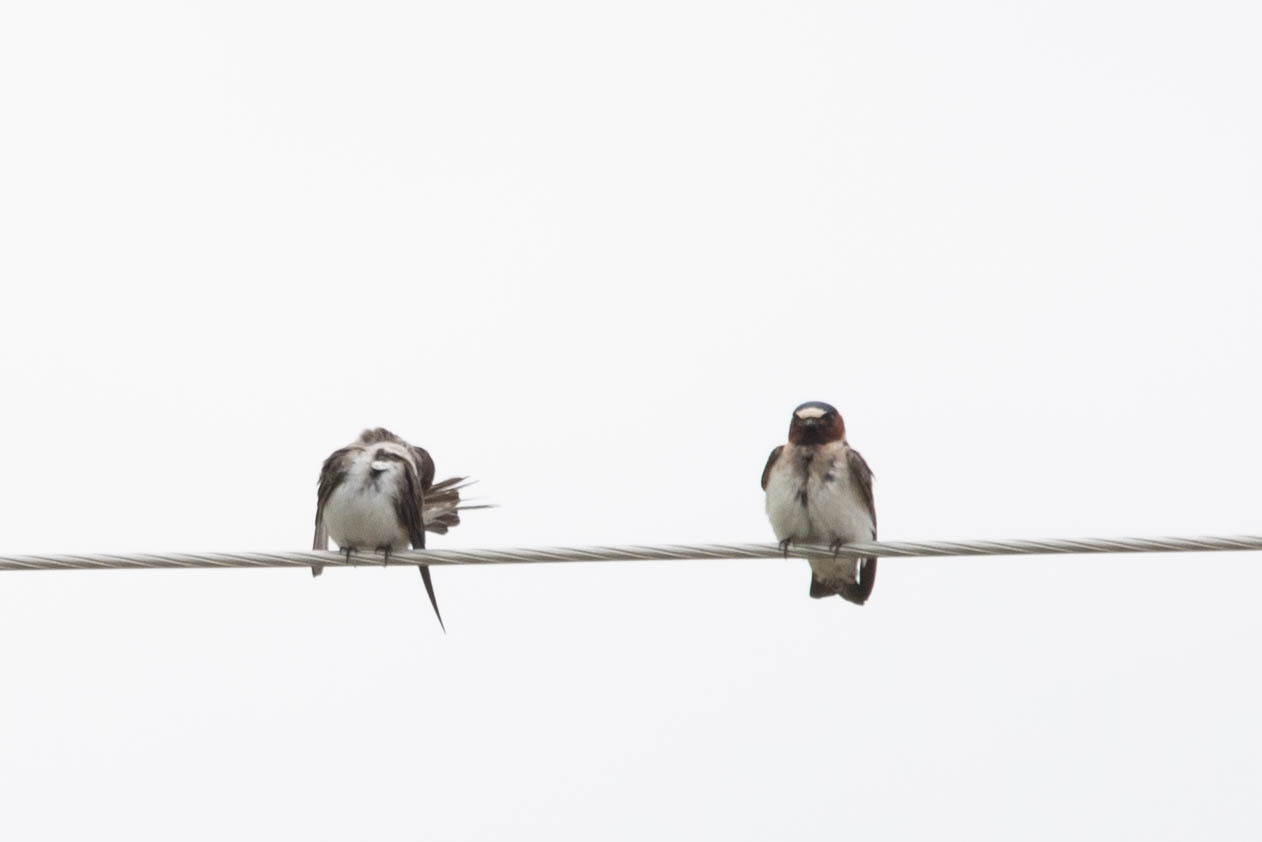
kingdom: Animalia
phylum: Chordata
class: Aves
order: Passeriformes
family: Hirundinidae
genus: Petrochelidon
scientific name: Petrochelidon pyrrhonota
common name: American cliff swallow
